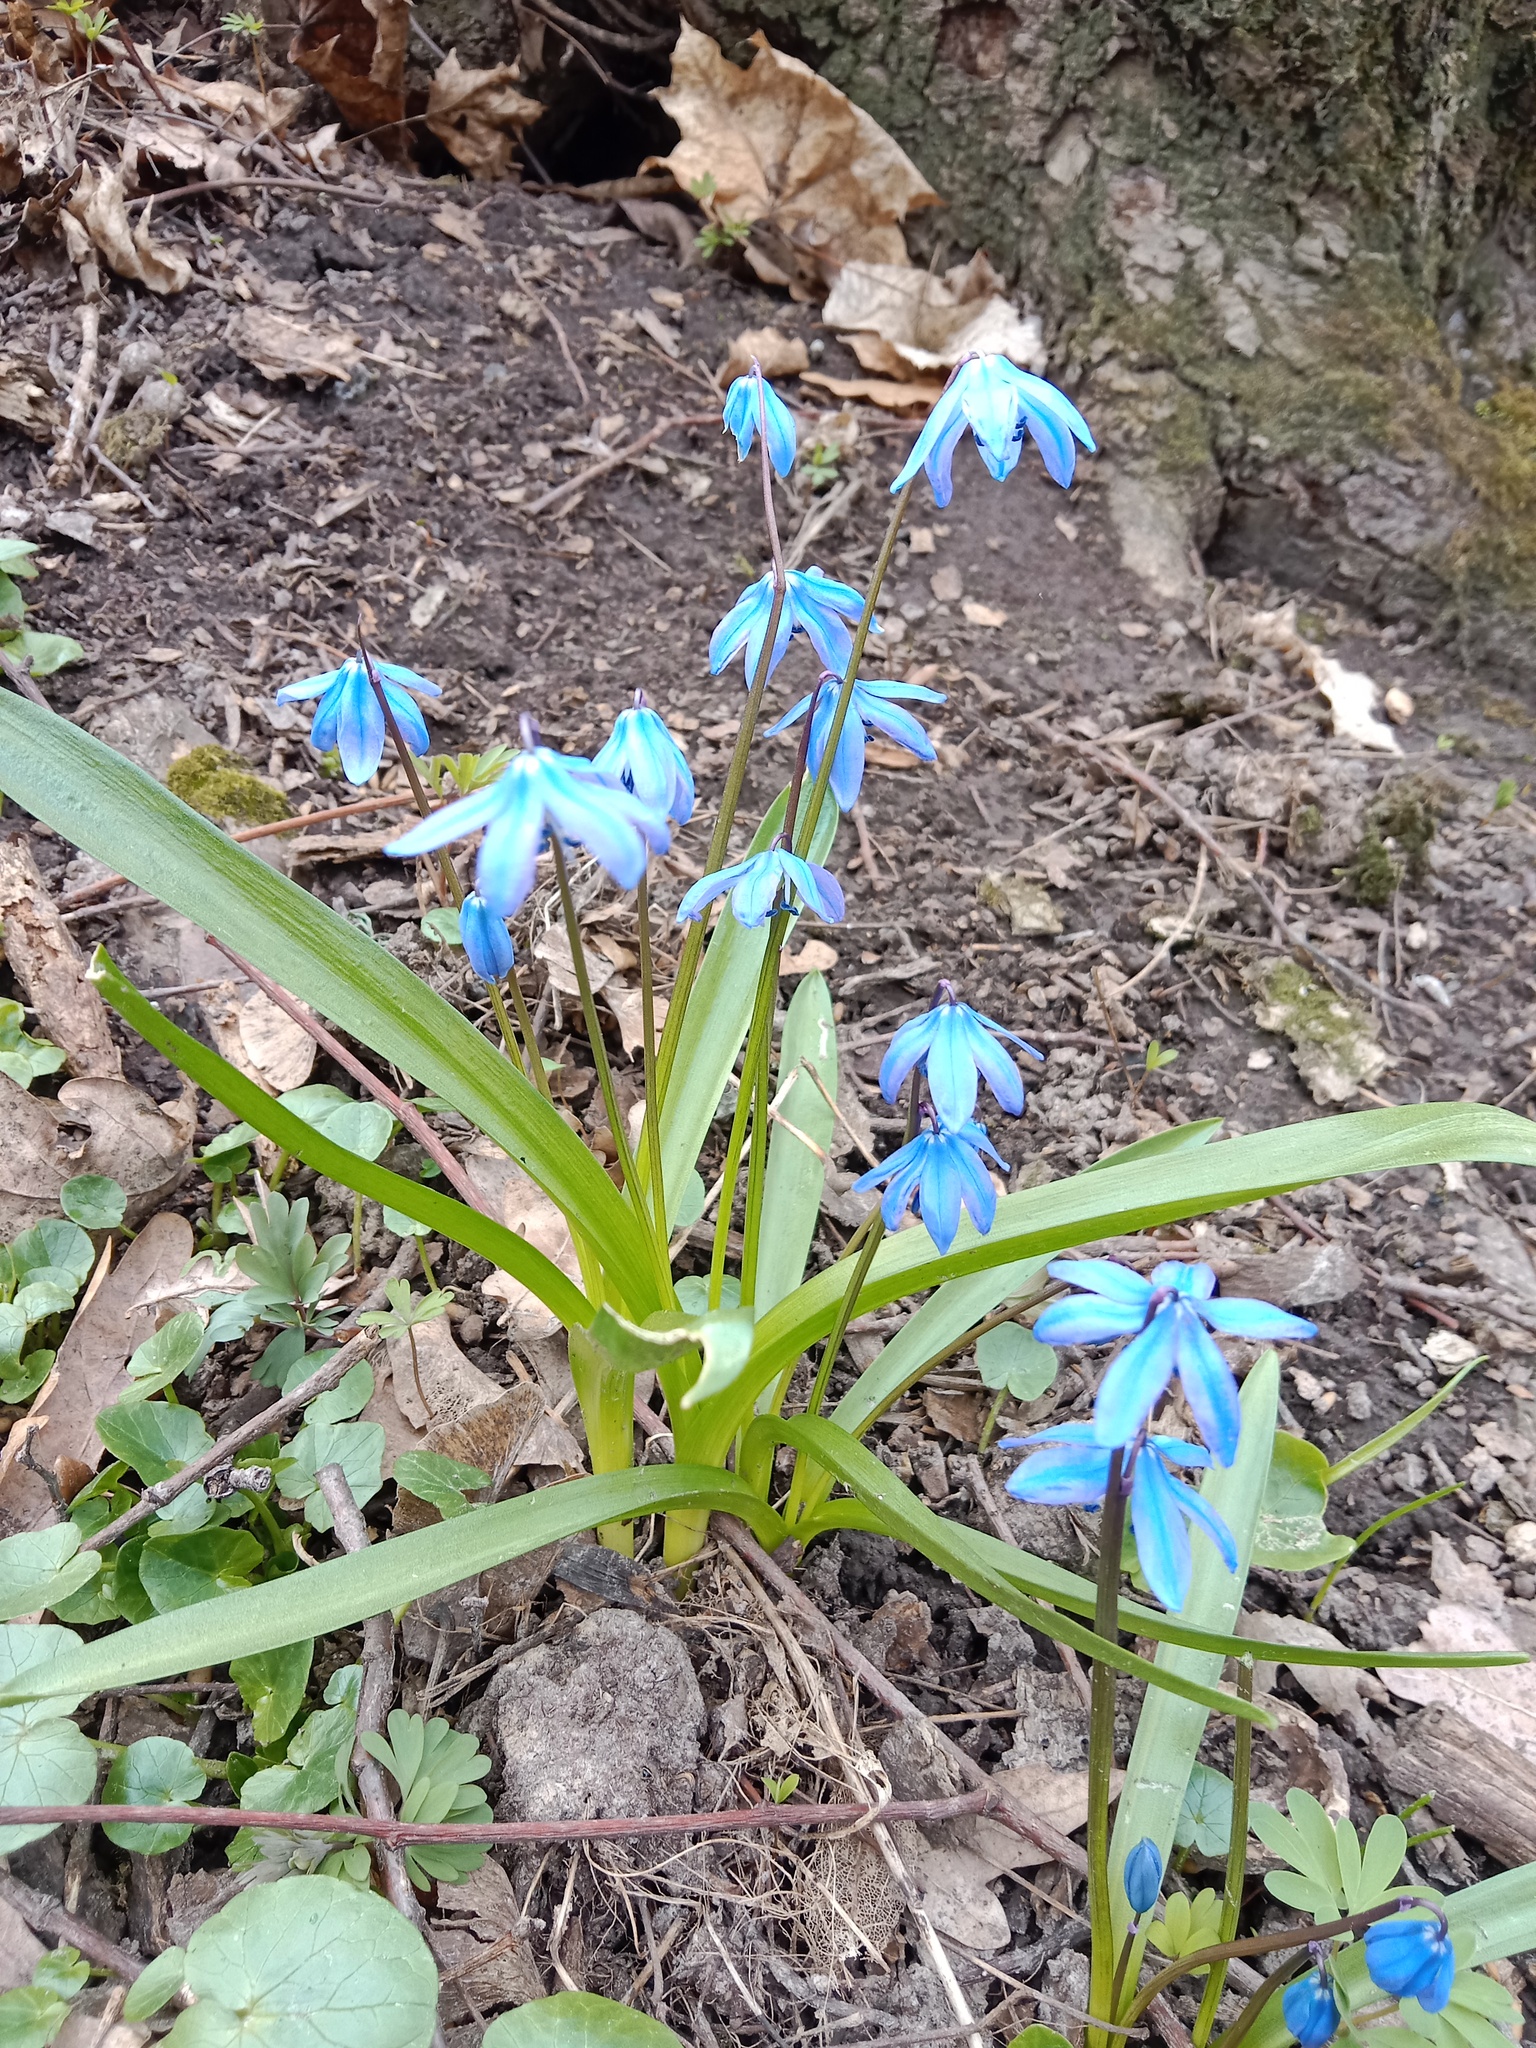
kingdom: Plantae
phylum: Tracheophyta
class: Liliopsida
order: Asparagales
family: Asparagaceae
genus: Scilla
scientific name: Scilla siberica
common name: Siberian squill
